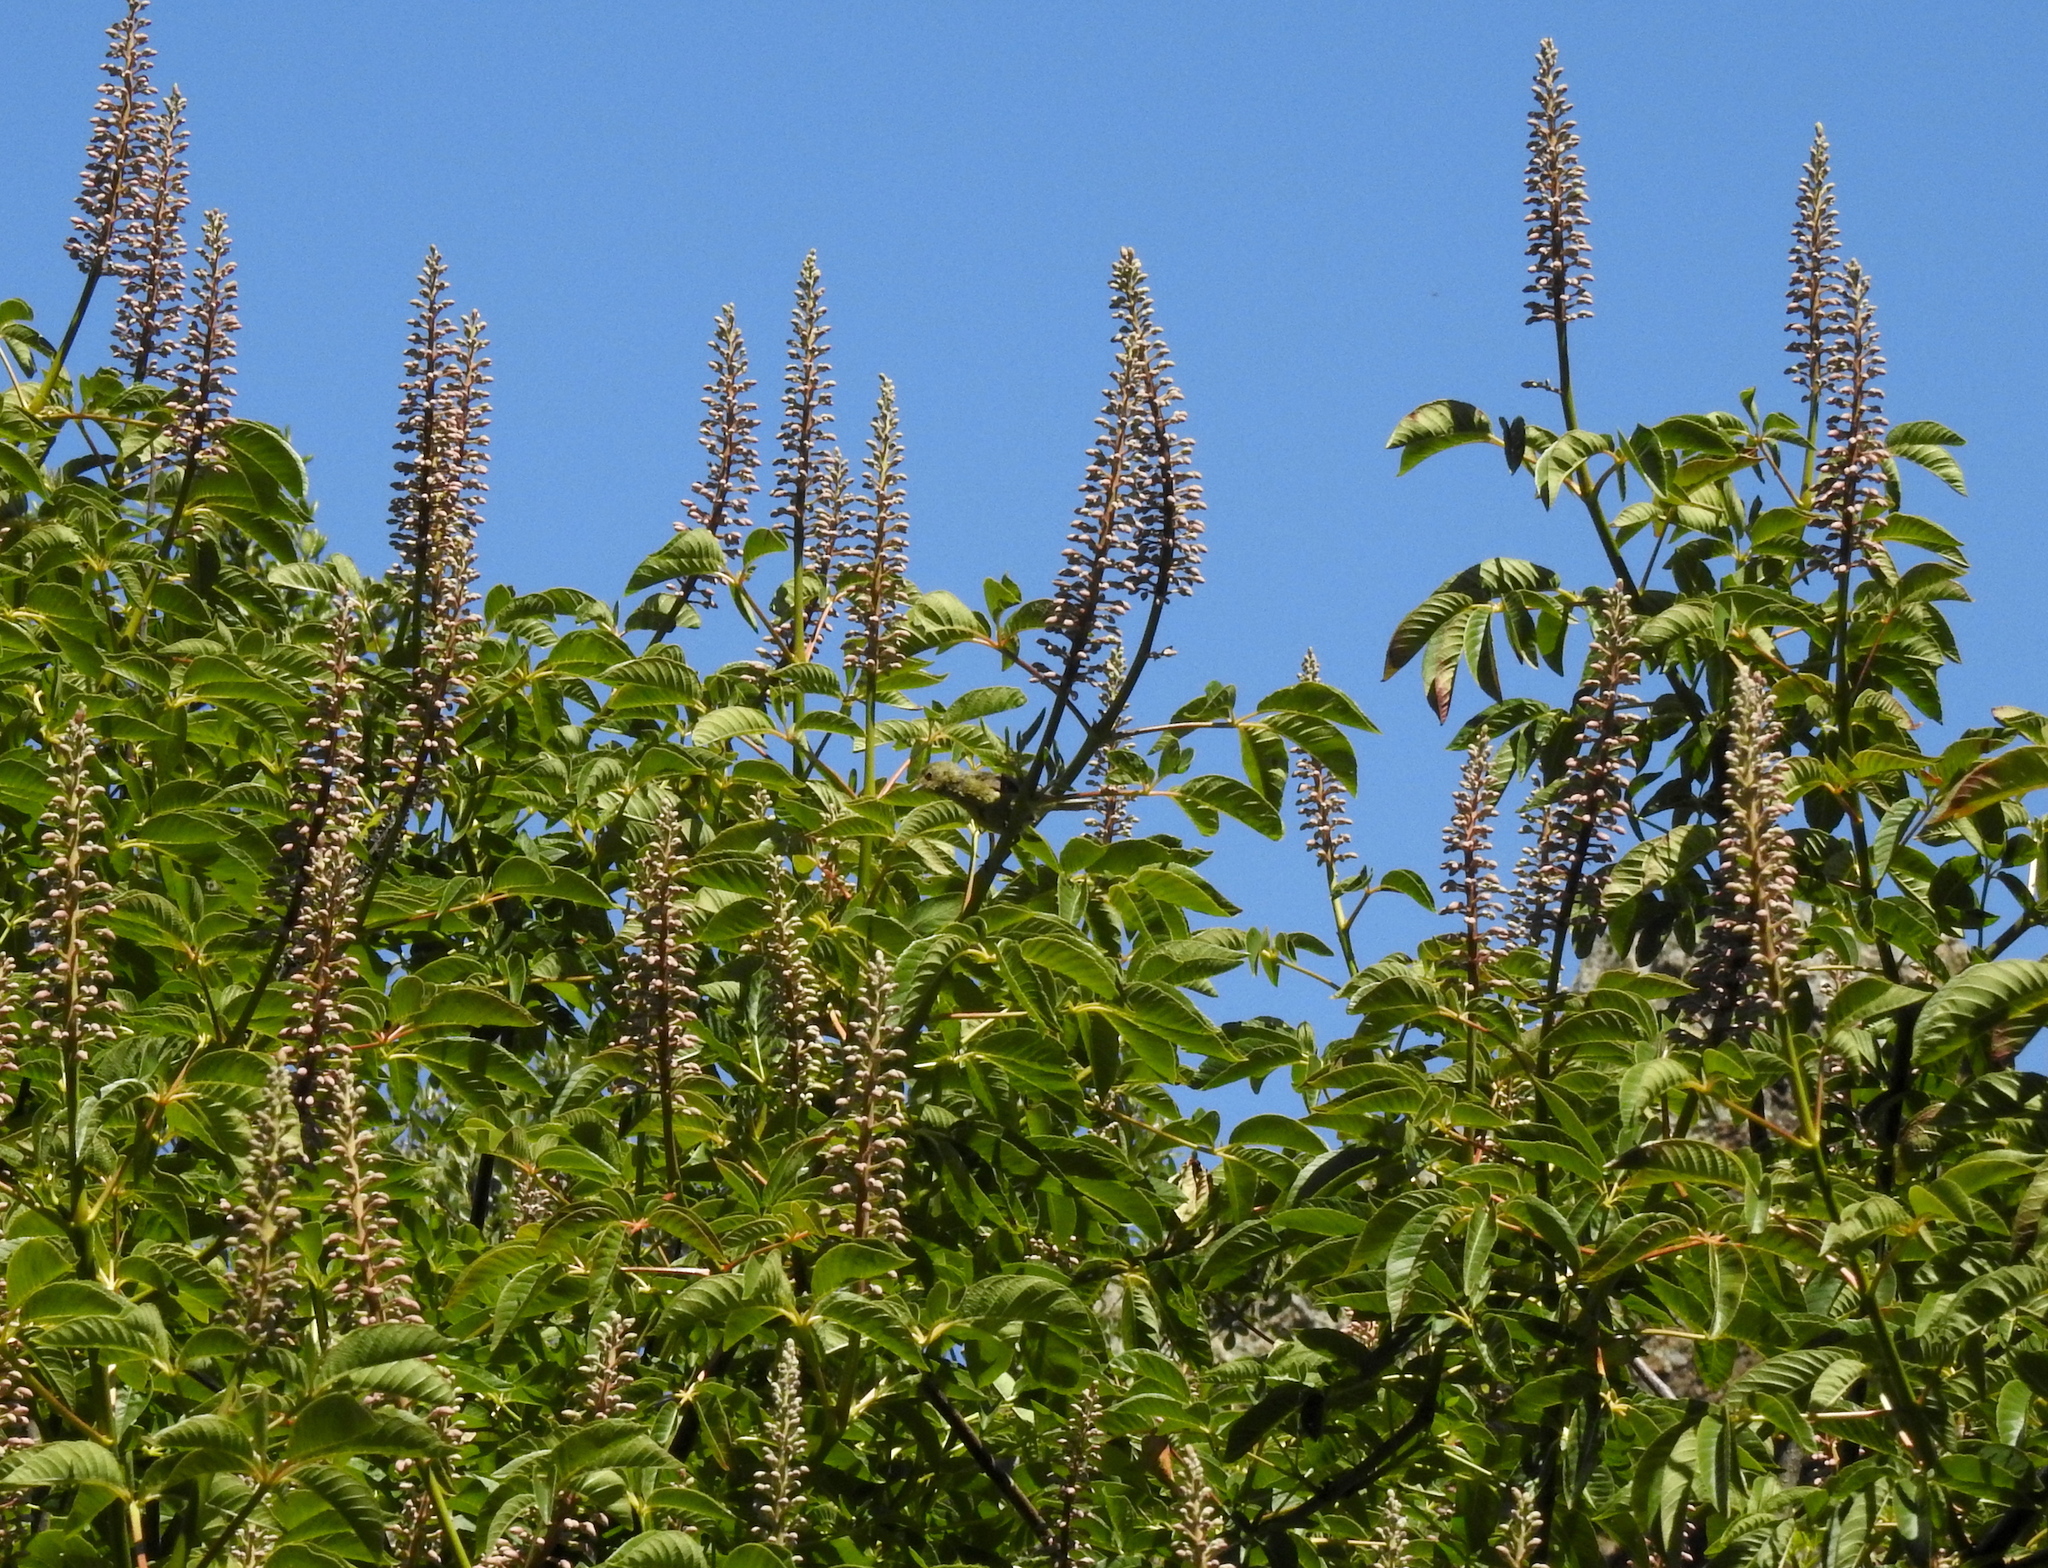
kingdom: Plantae
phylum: Tracheophyta
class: Magnoliopsida
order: Sapindales
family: Sapindaceae
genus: Aesculus
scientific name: Aesculus californica
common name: California buckeye
